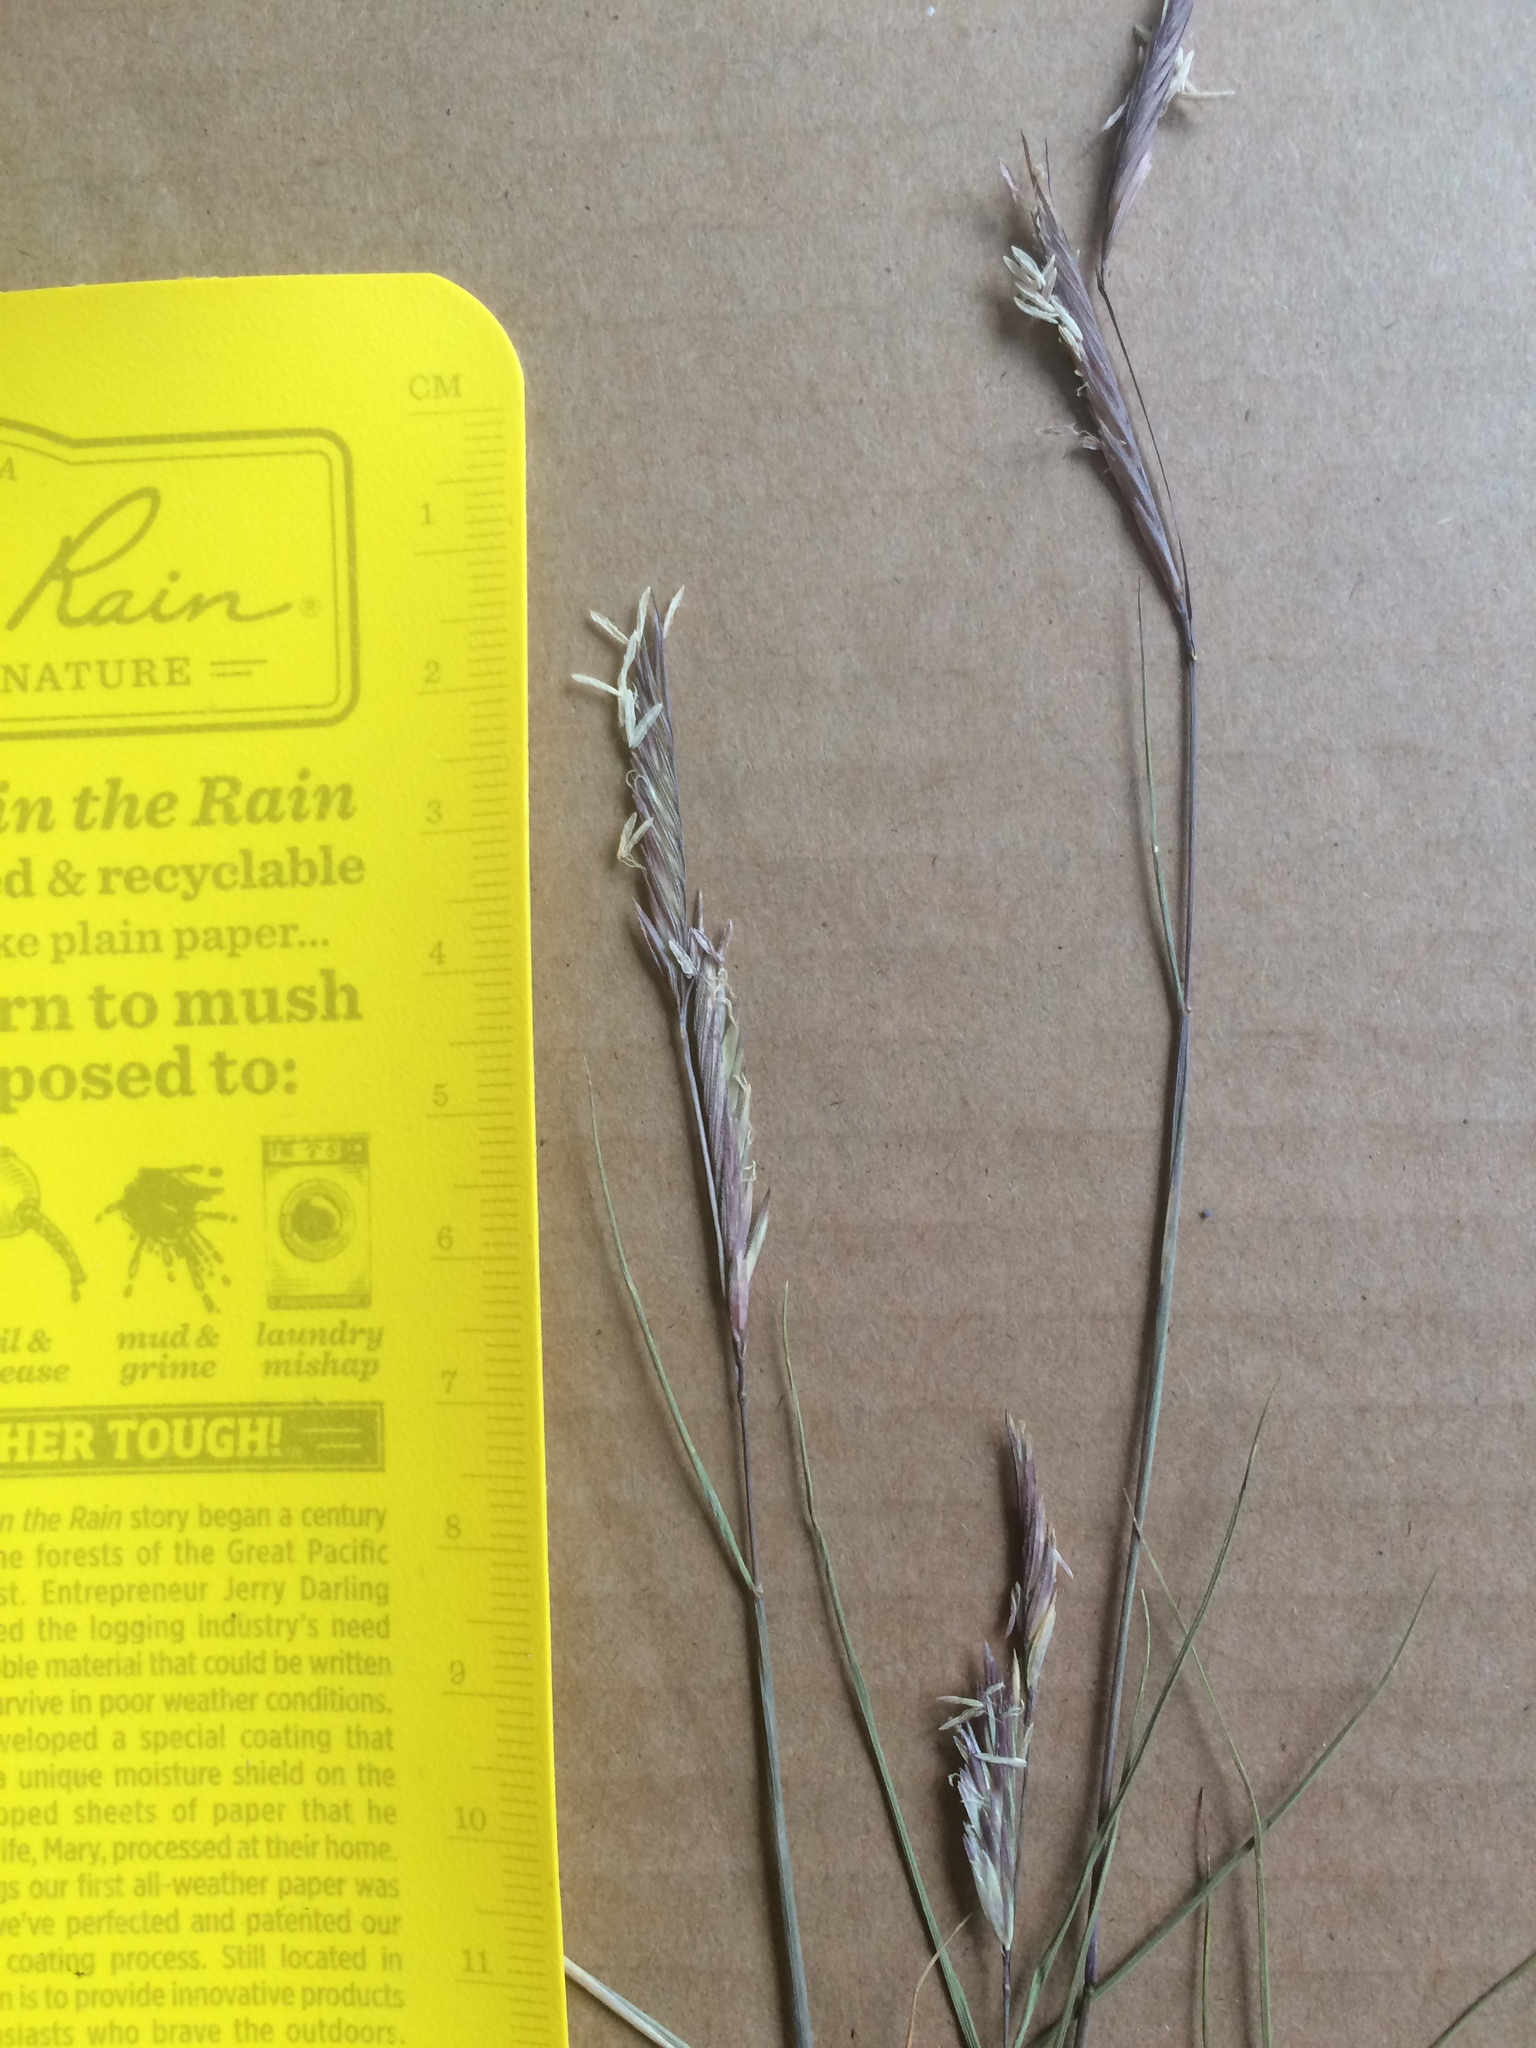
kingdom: Plantae
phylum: Tracheophyta
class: Liliopsida
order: Poales
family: Poaceae
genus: Sporobolus
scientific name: Sporobolus pumilus
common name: Highwater grass
